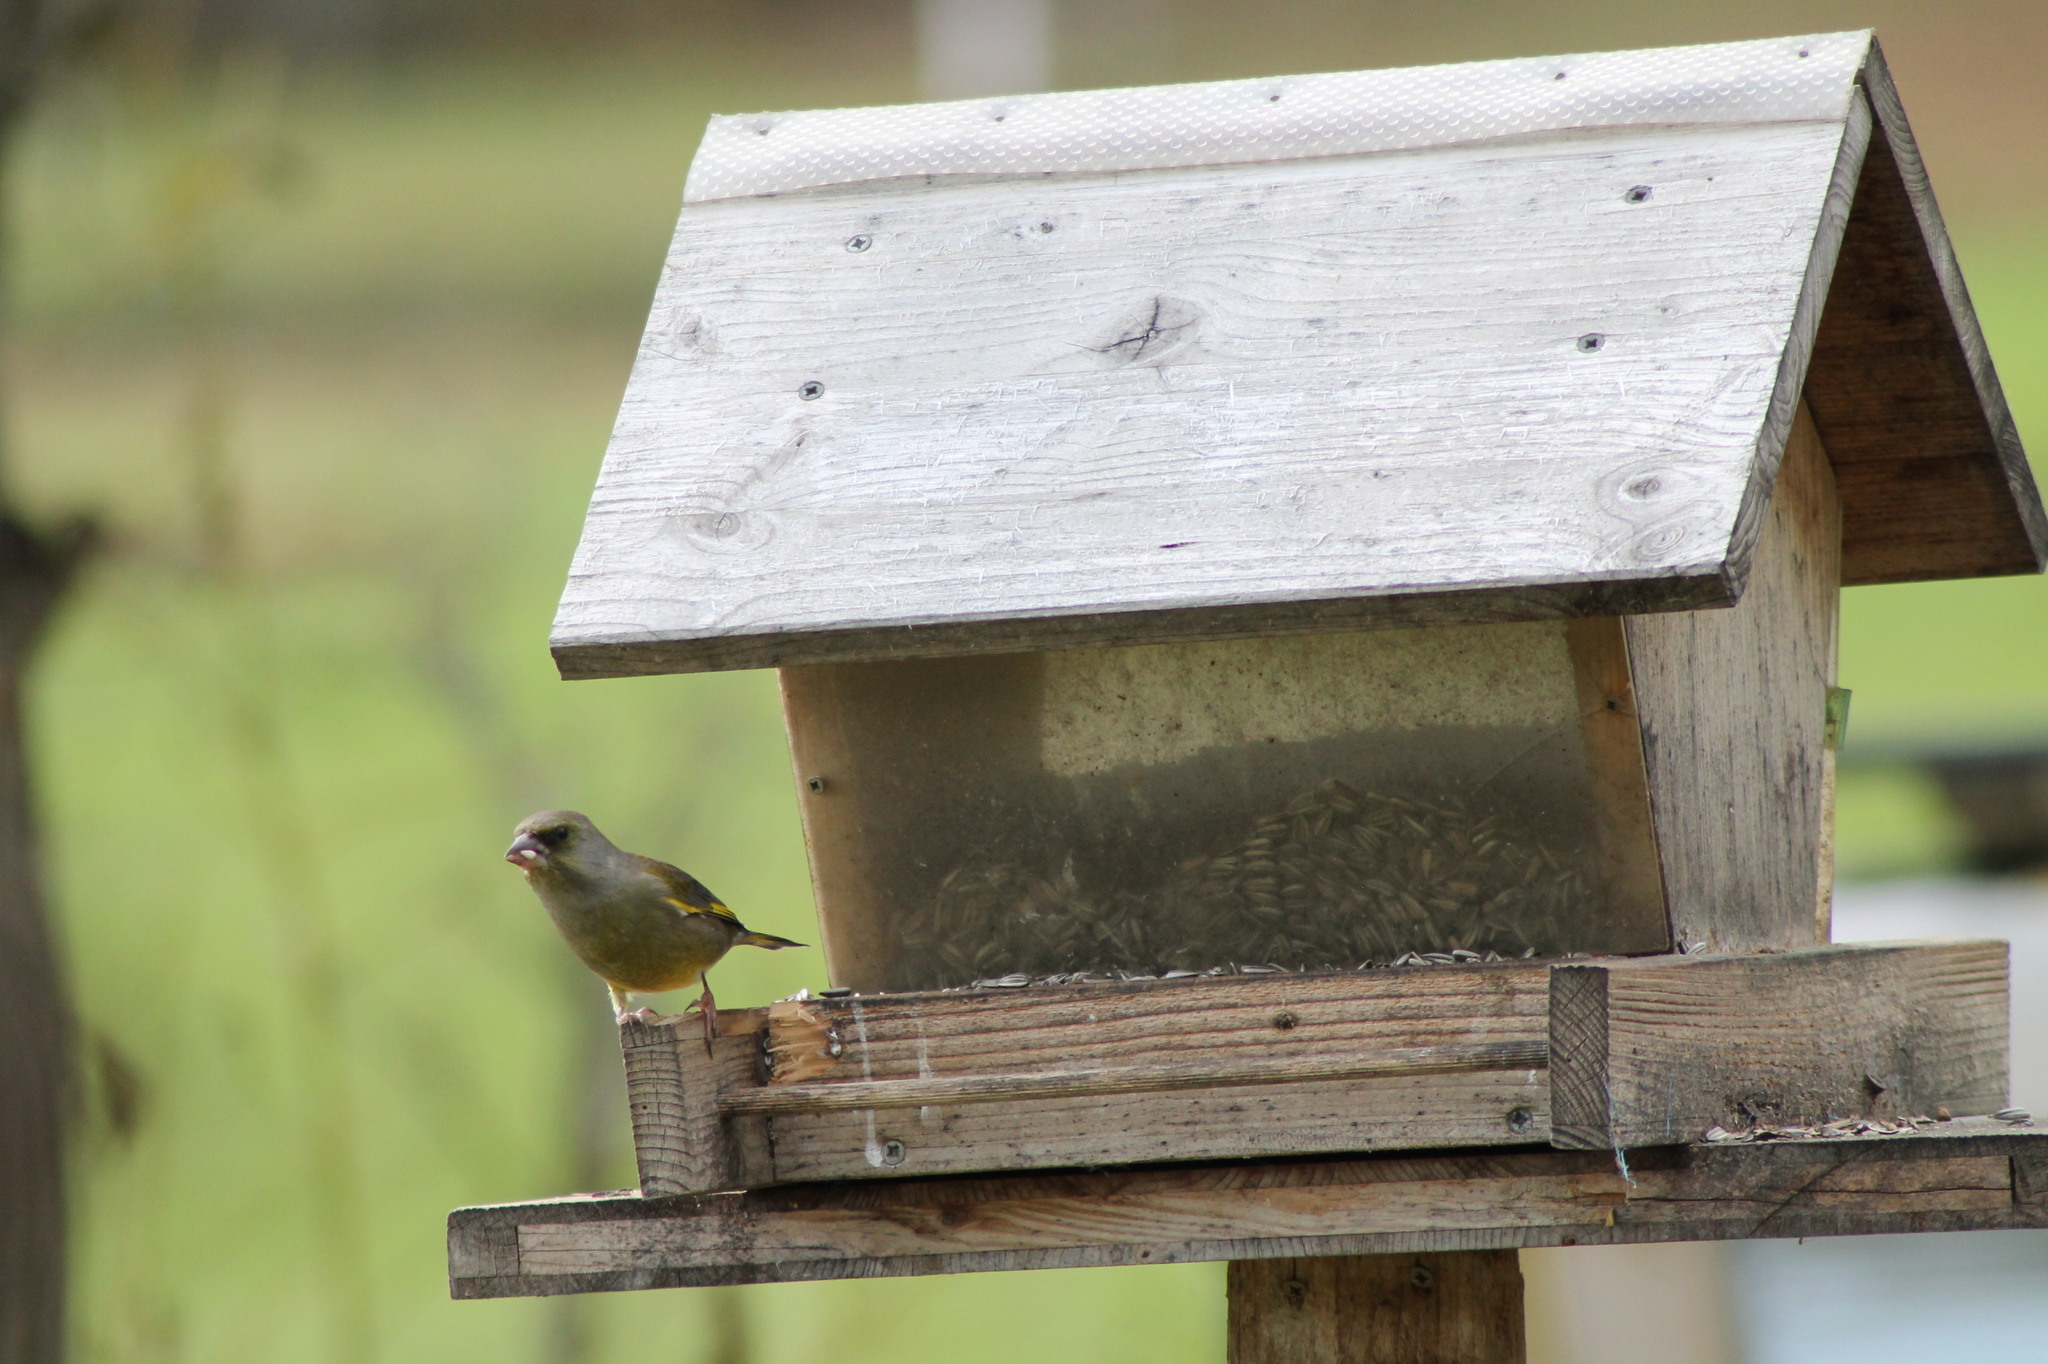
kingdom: Plantae
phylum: Tracheophyta
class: Liliopsida
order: Poales
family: Poaceae
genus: Chloris
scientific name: Chloris chloris
